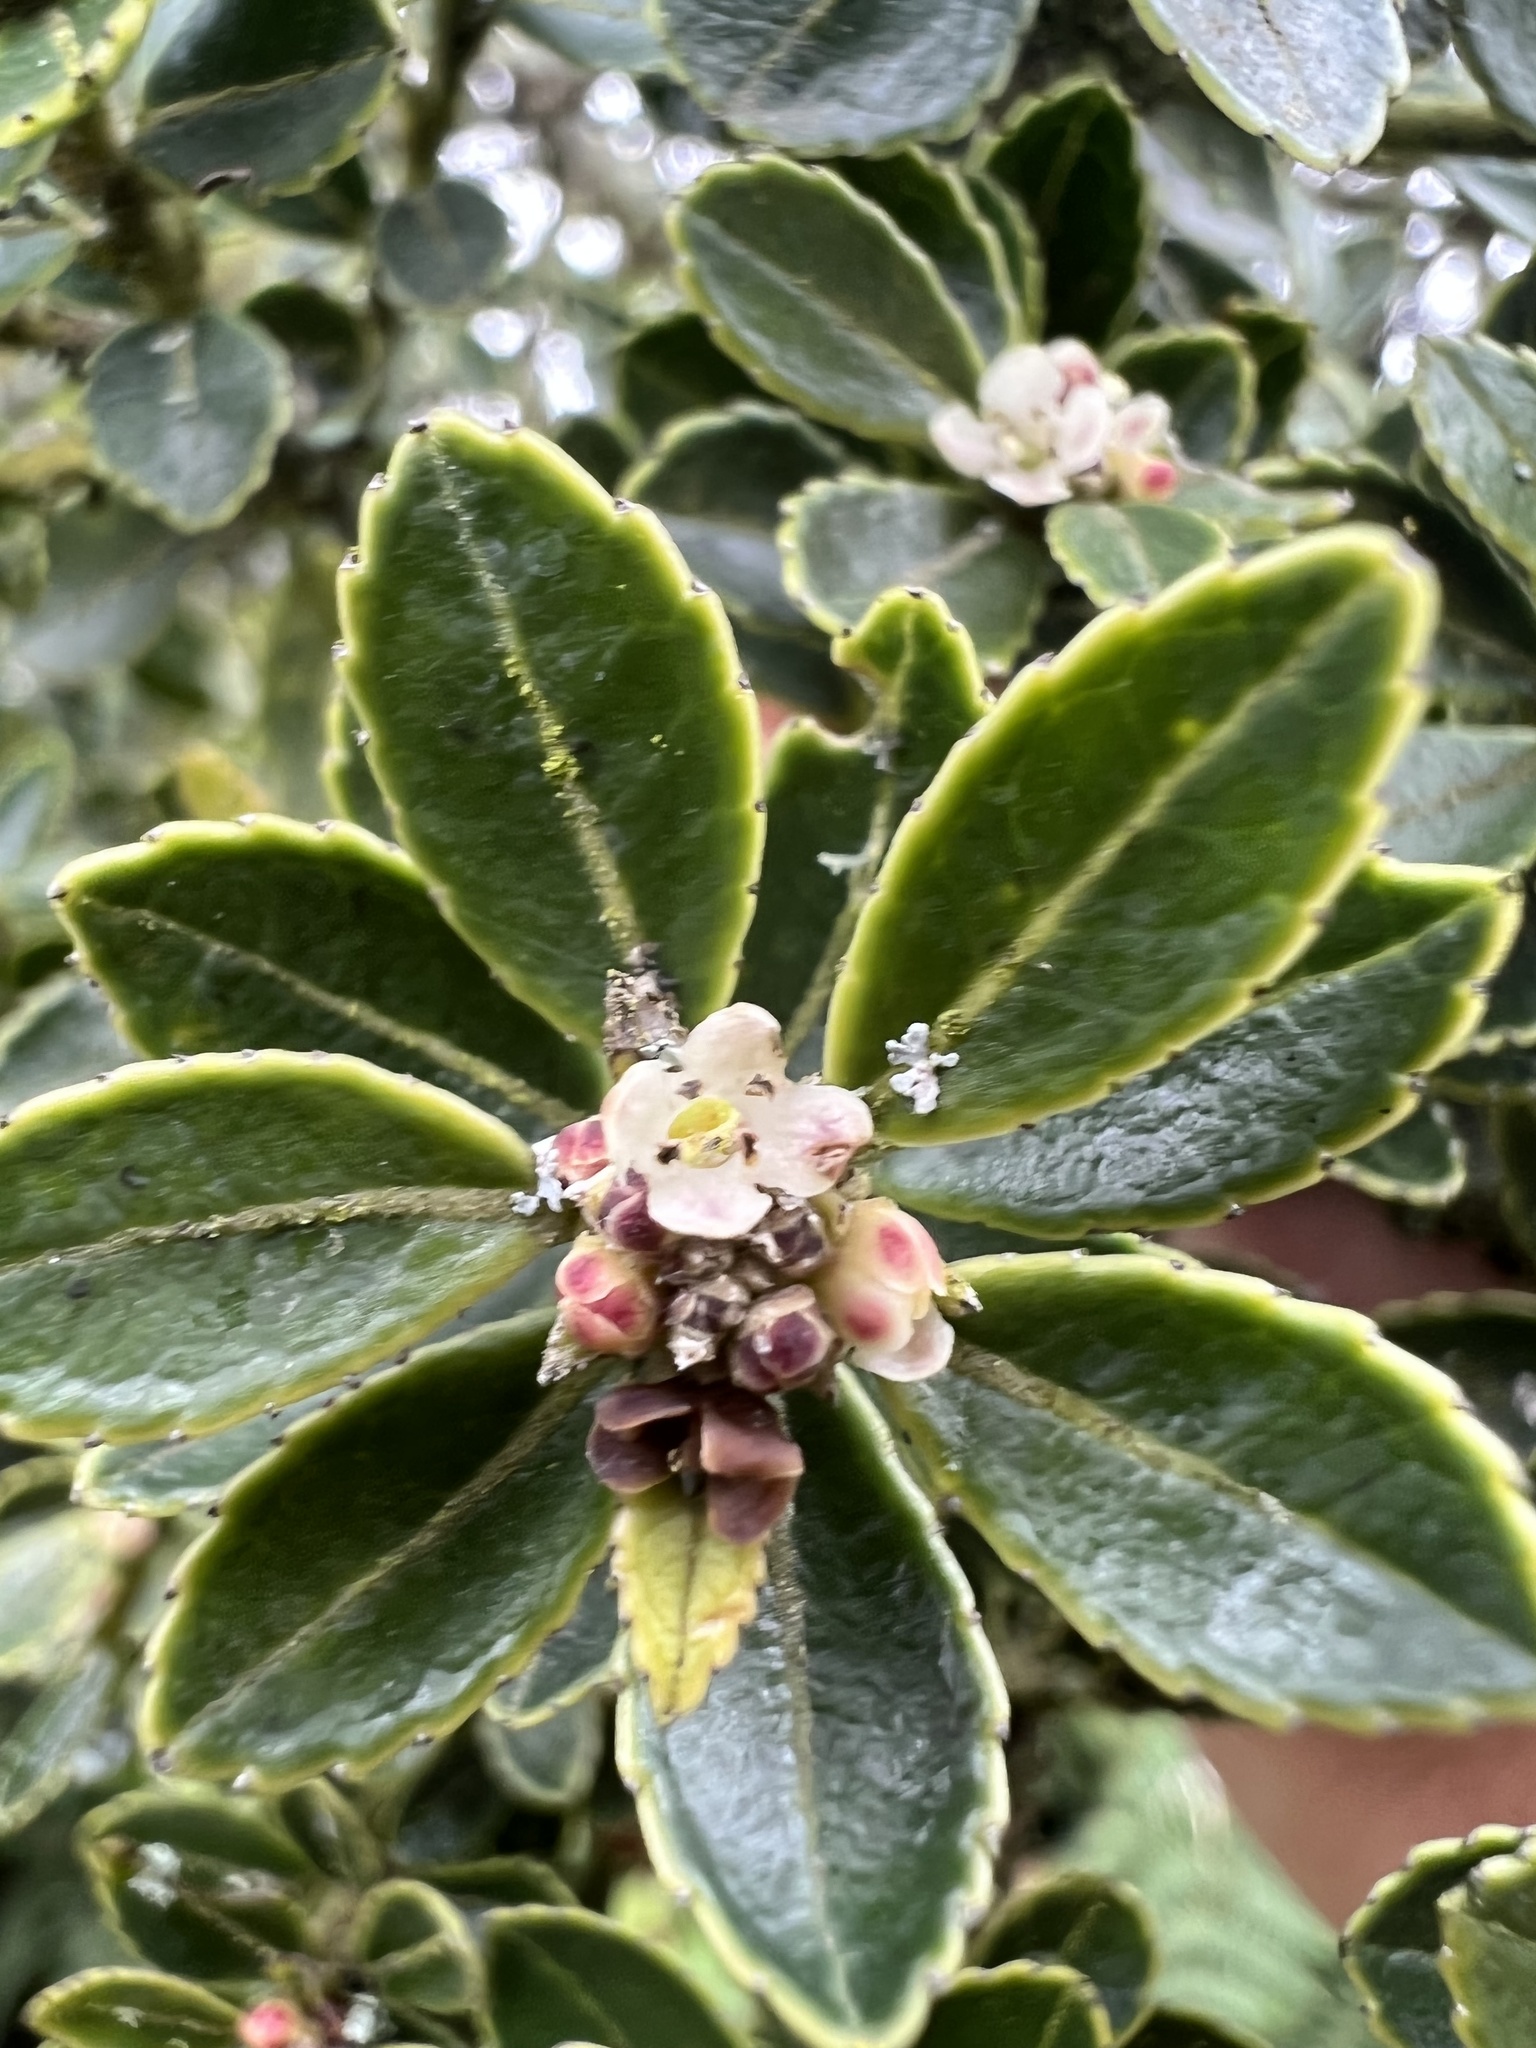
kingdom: Plantae
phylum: Tracheophyta
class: Magnoliopsida
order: Aquifoliales
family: Aquifoliaceae
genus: Ilex
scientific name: Ilex microphylla
